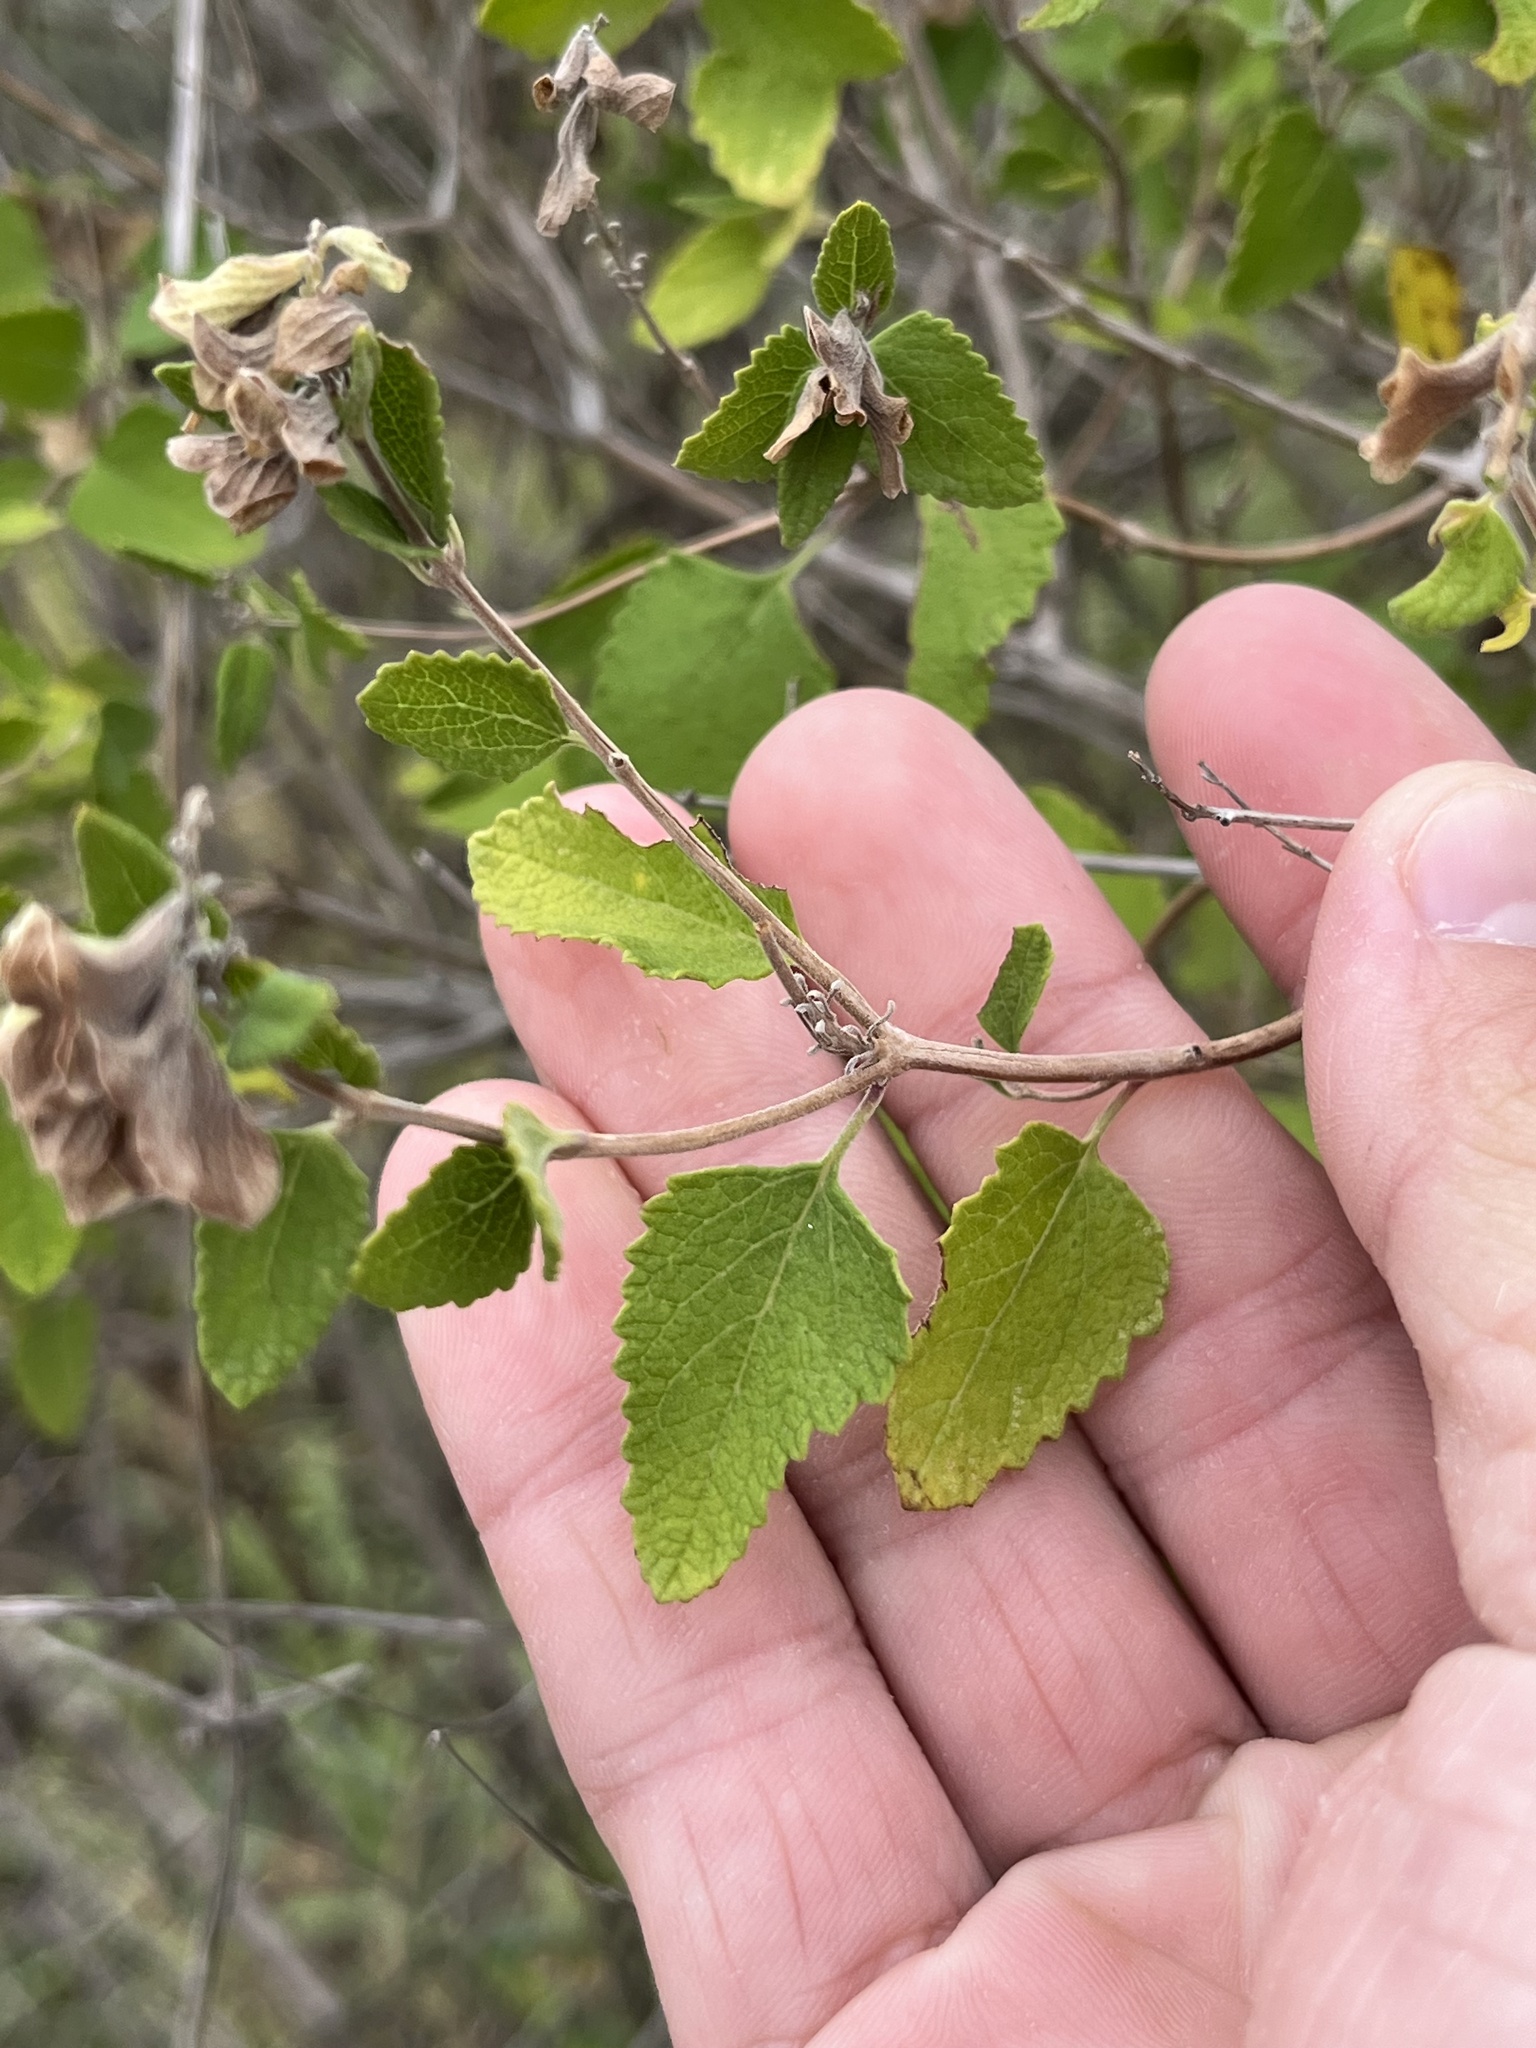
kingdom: Plantae
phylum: Tracheophyta
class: Magnoliopsida
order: Lamiales
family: Lamiaceae
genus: Salvia
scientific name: Salvia ballotiflora
